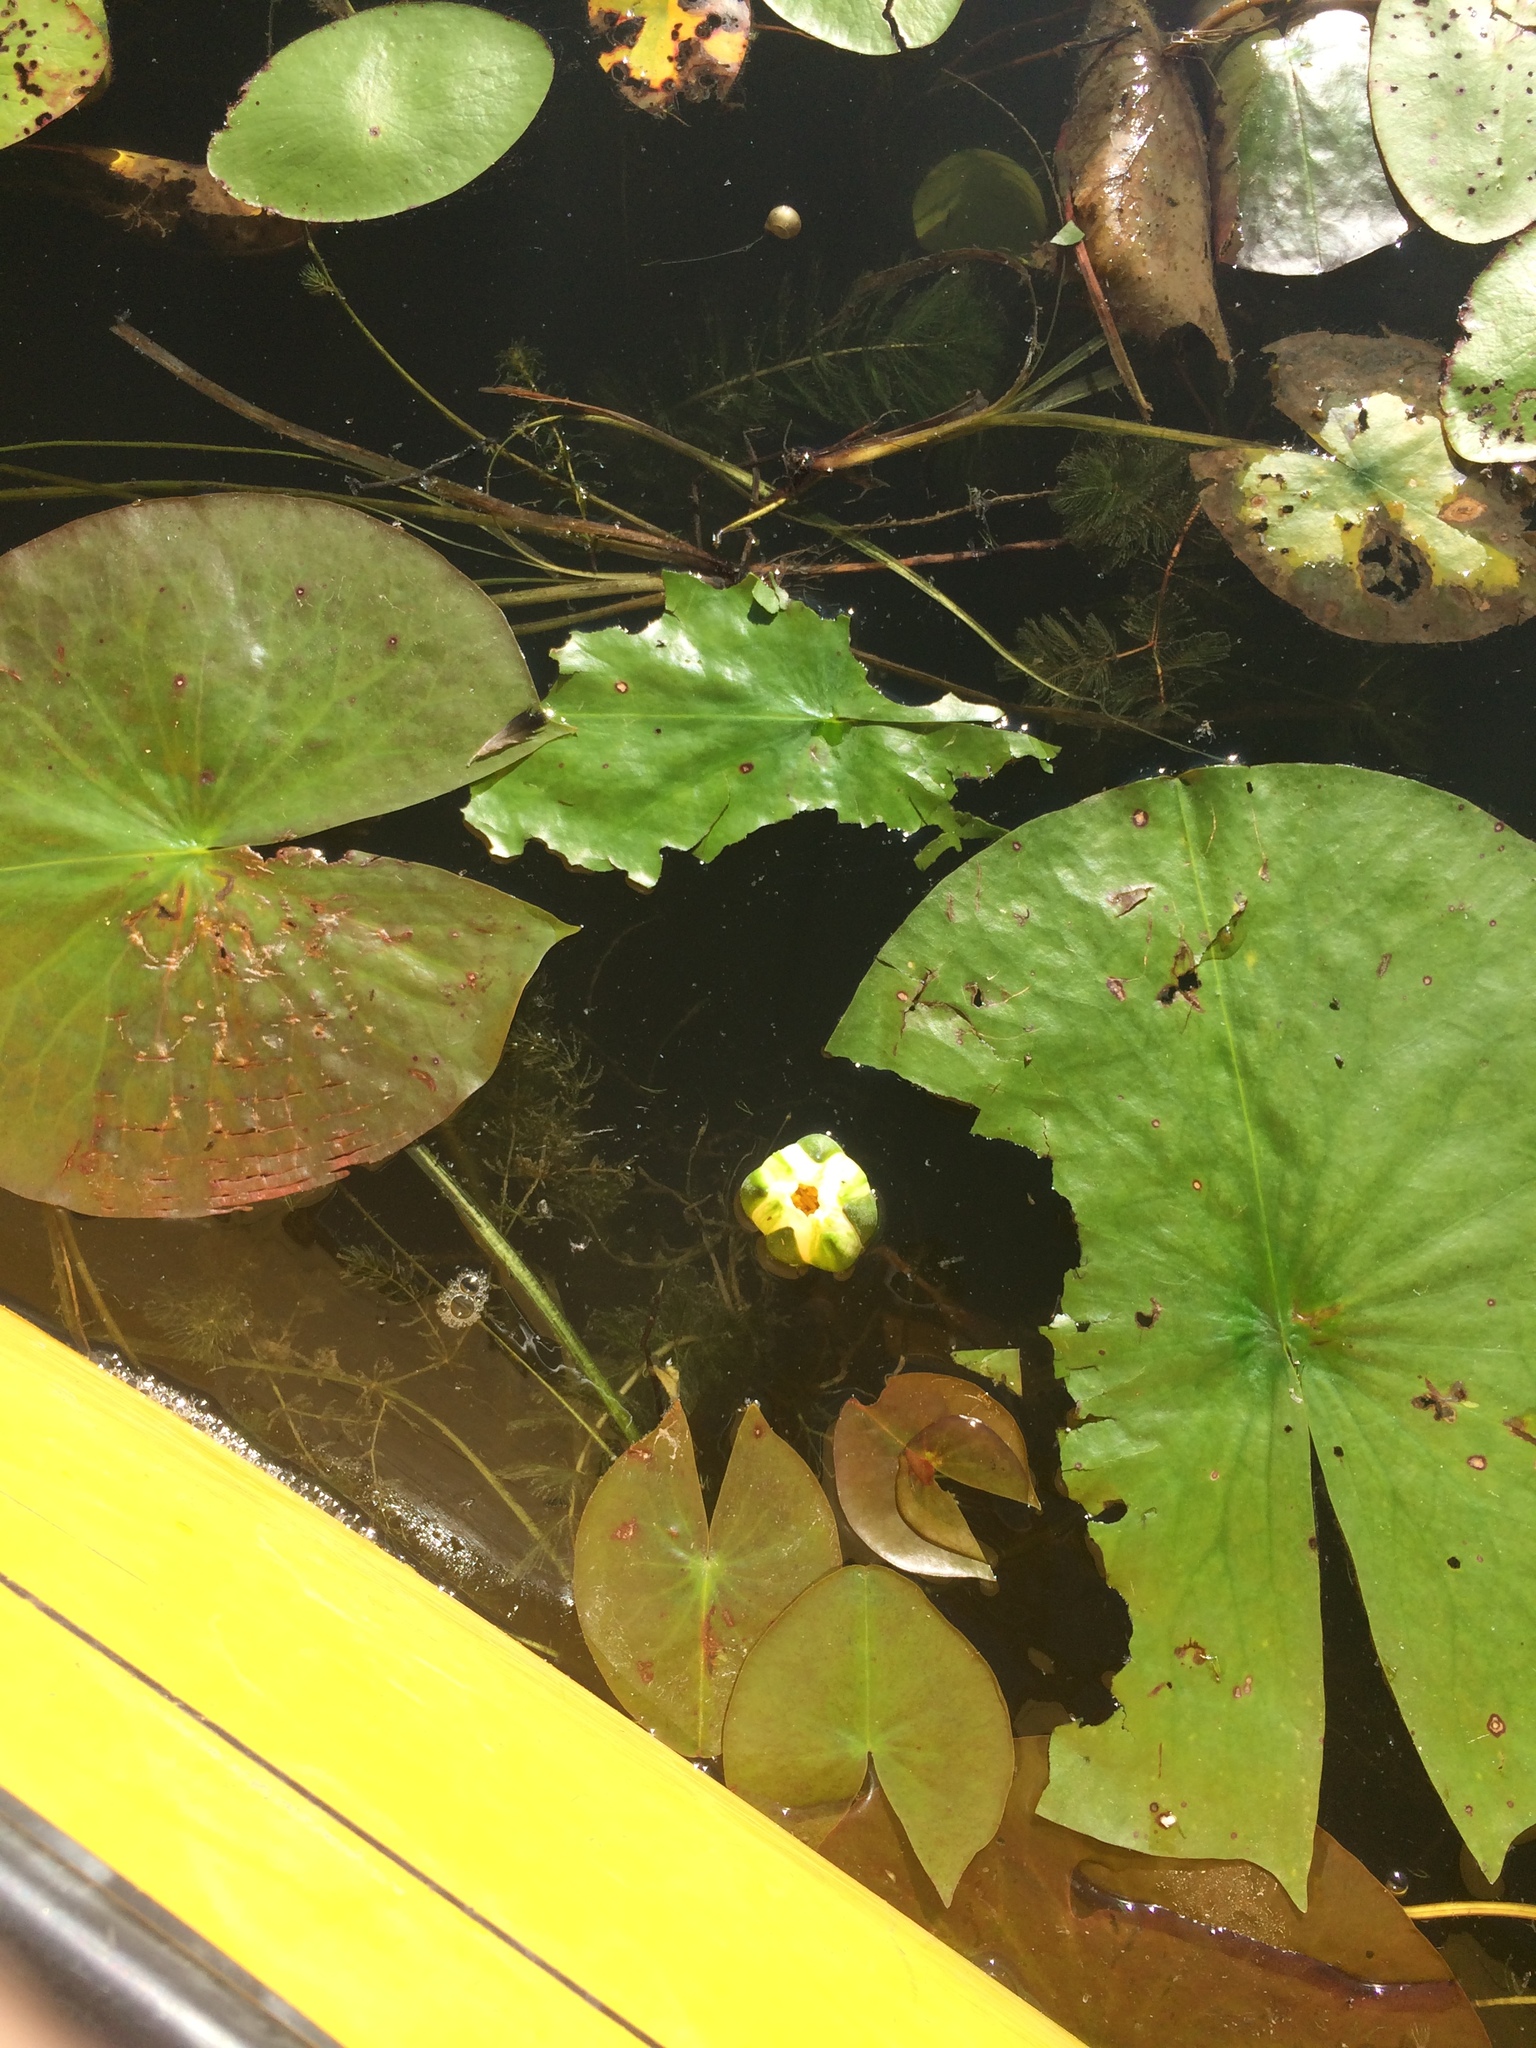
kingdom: Plantae
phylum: Tracheophyta
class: Magnoliopsida
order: Nymphaeales
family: Nymphaeaceae
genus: Nymphaea
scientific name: Nymphaea odorata
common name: Fragrant water-lily
